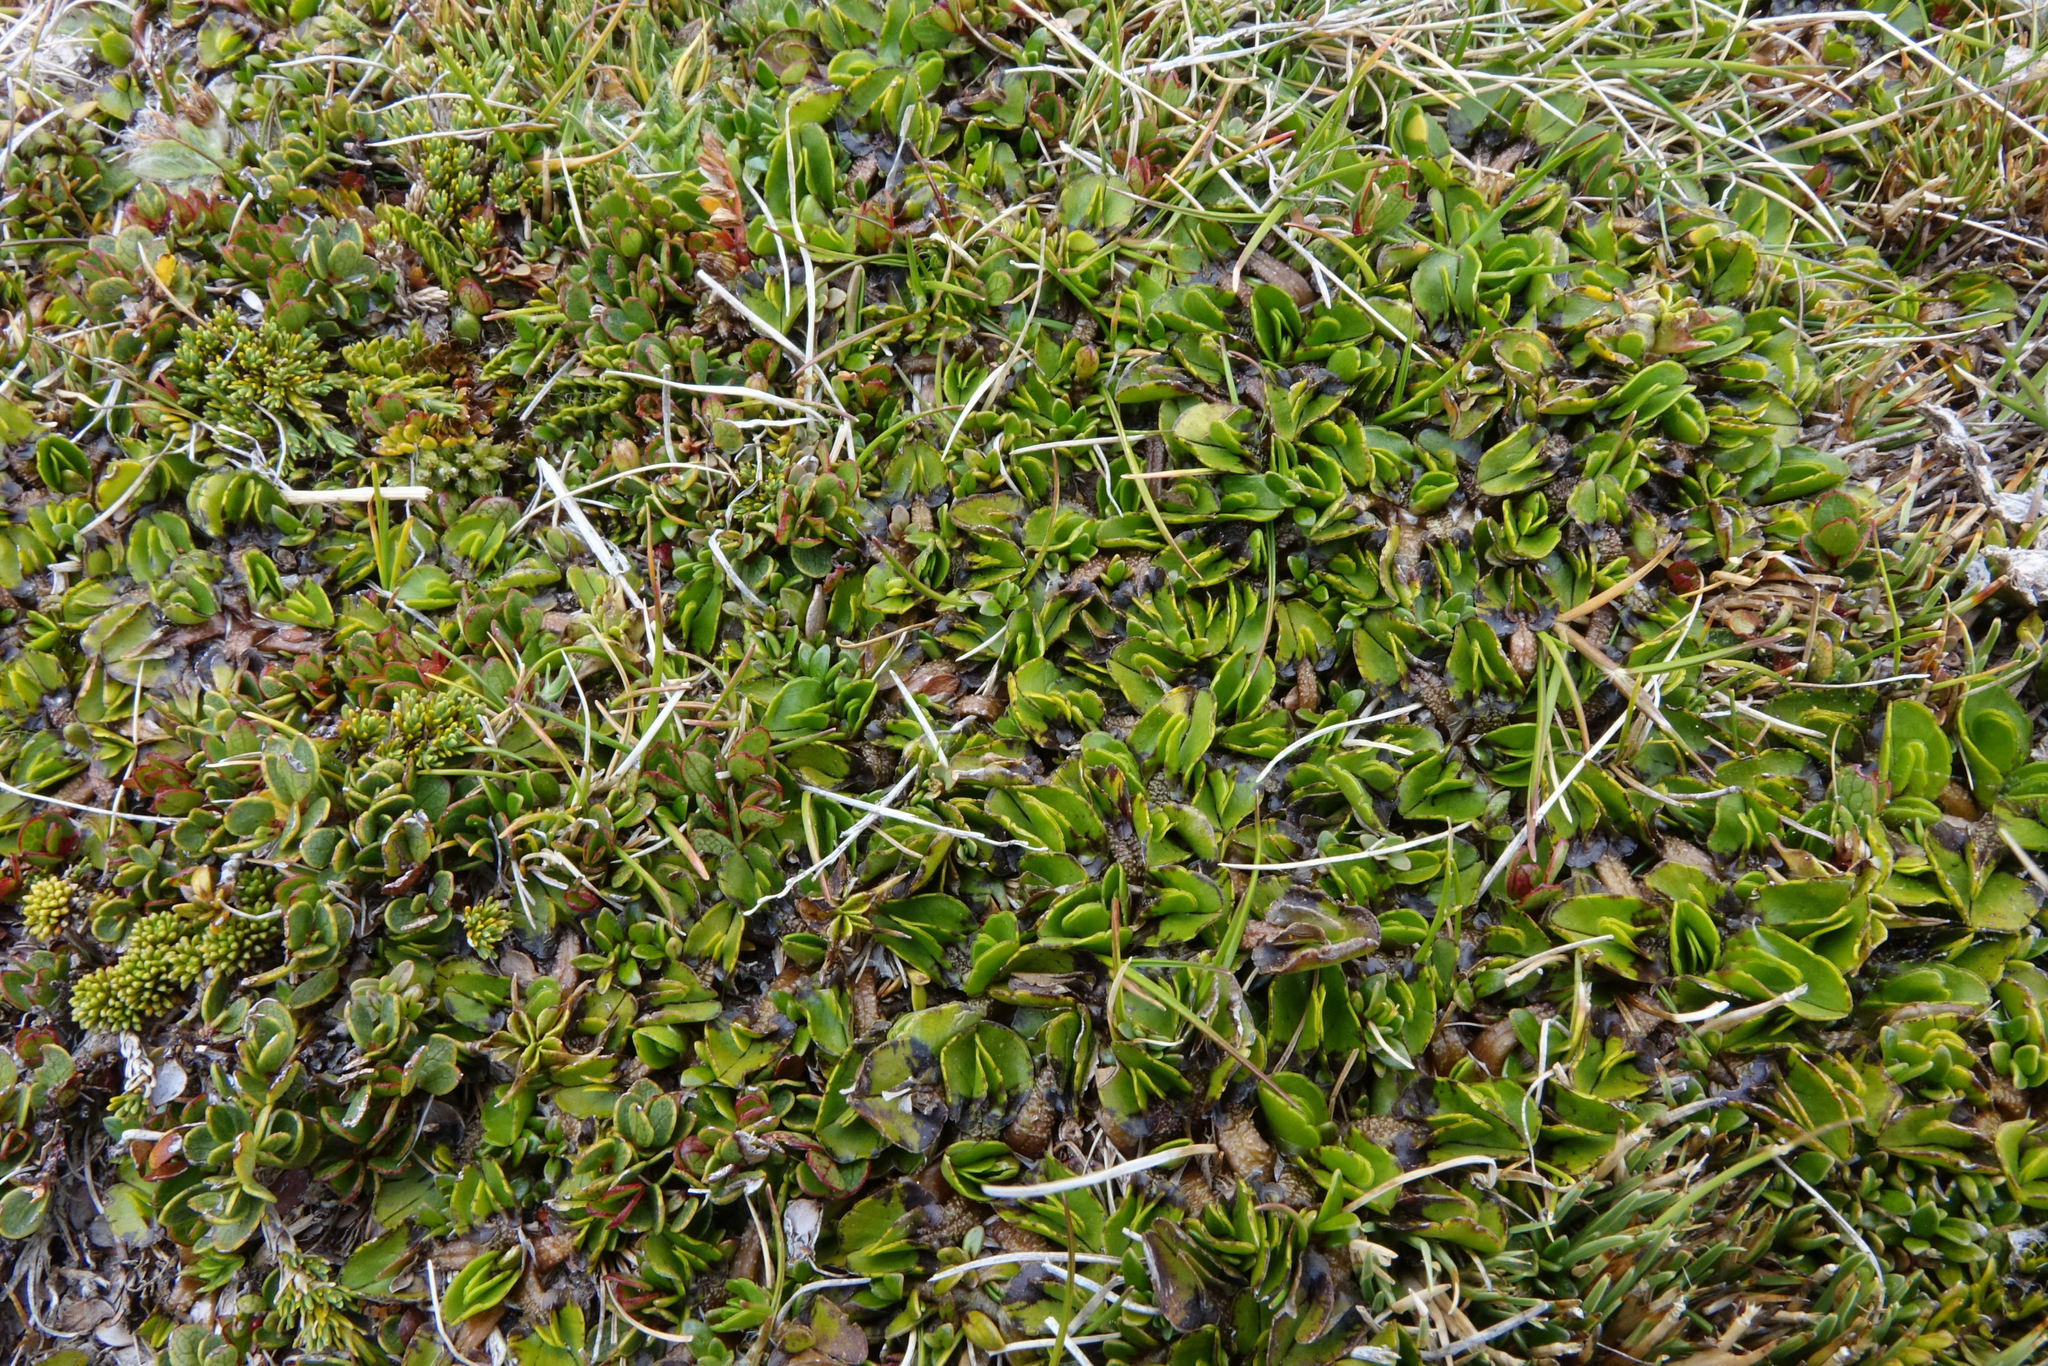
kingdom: Plantae
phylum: Tracheophyta
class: Magnoliopsida
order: Ranunculales
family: Ranunculaceae
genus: Caltha
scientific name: Caltha obtusa
